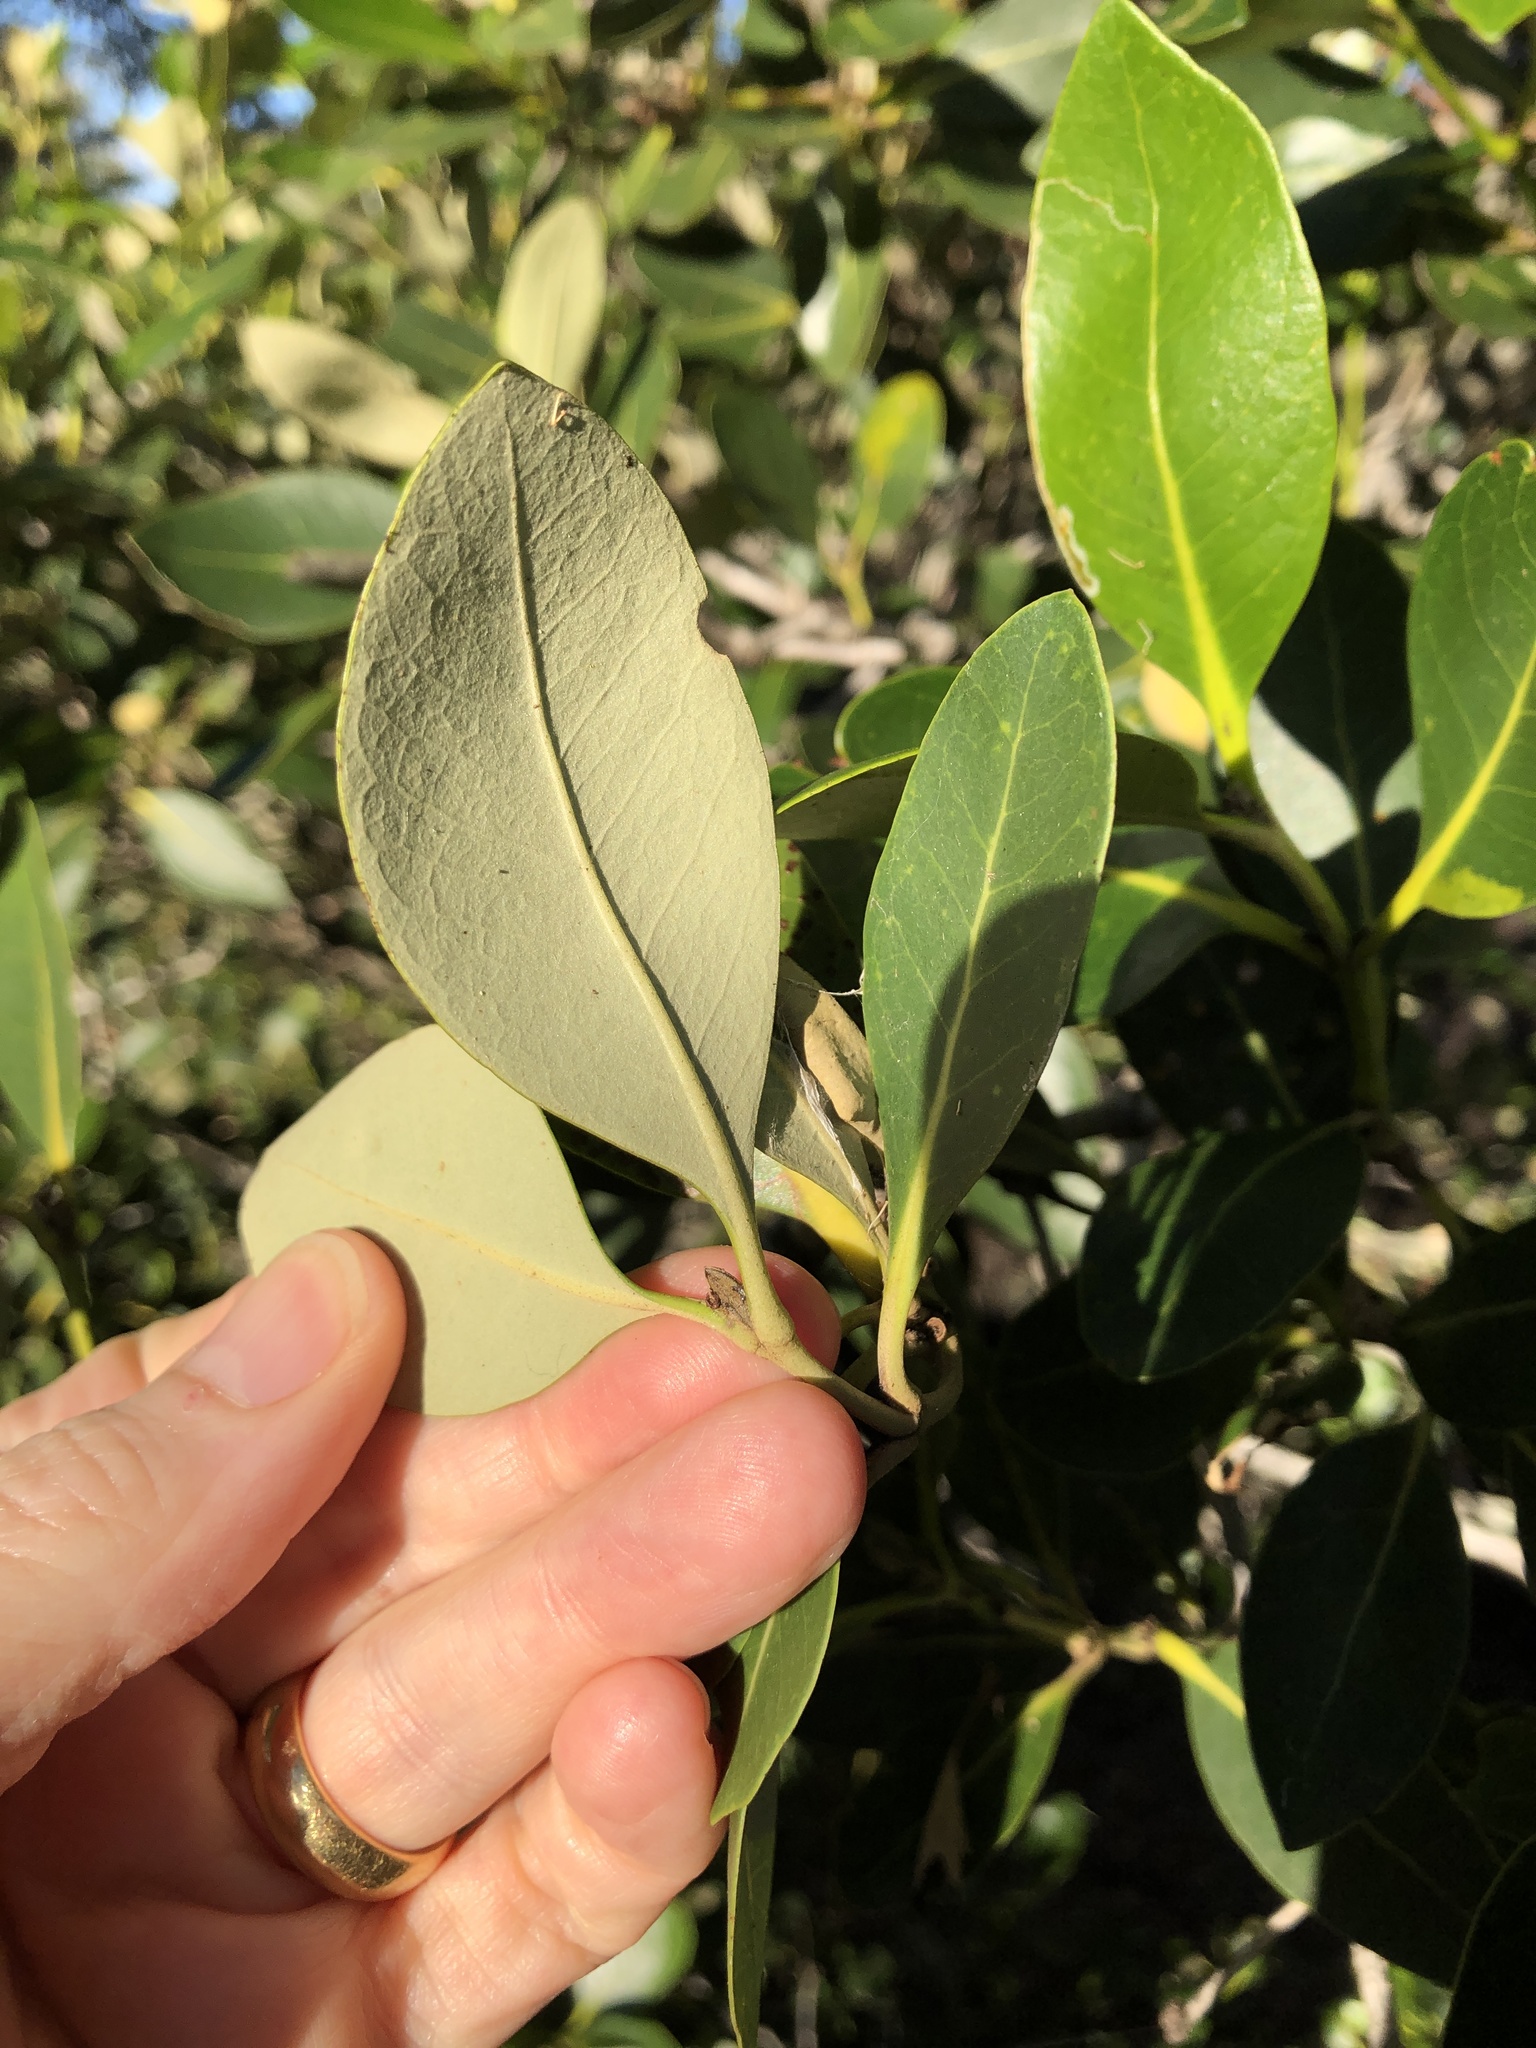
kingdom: Plantae
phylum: Tracheophyta
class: Magnoliopsida
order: Lamiales
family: Acanthaceae
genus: Avicennia
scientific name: Avicennia marina
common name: Gray mangrove
